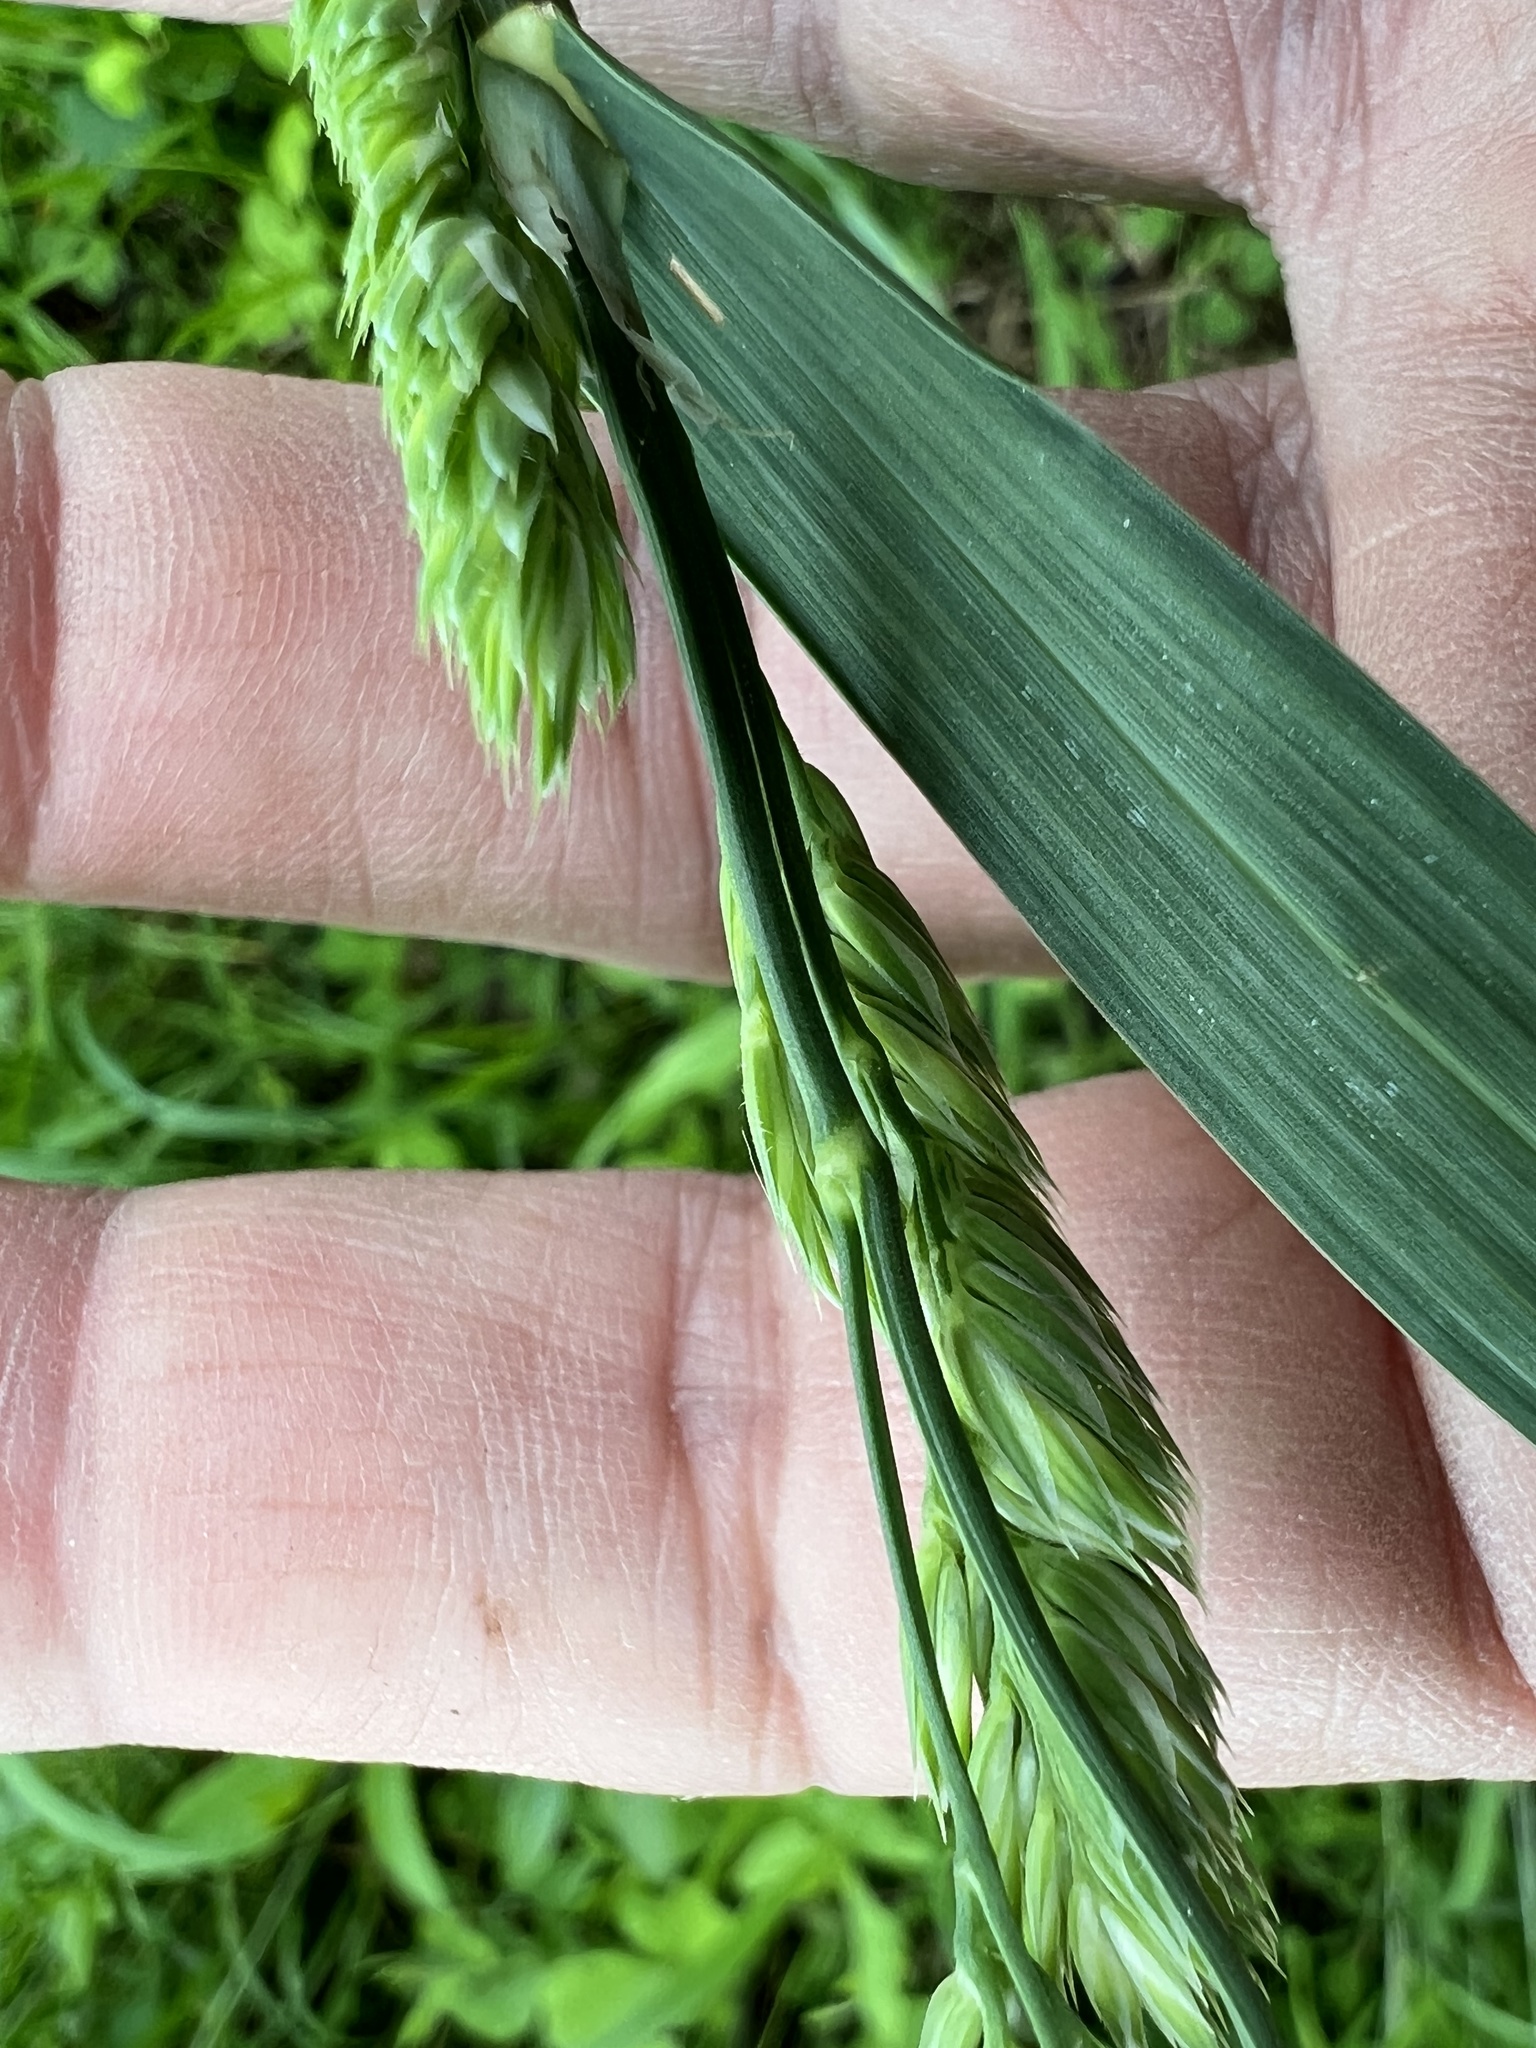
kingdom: Plantae
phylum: Tracheophyta
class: Liliopsida
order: Poales
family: Poaceae
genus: Dactylis
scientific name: Dactylis glomerata
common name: Orchardgrass
